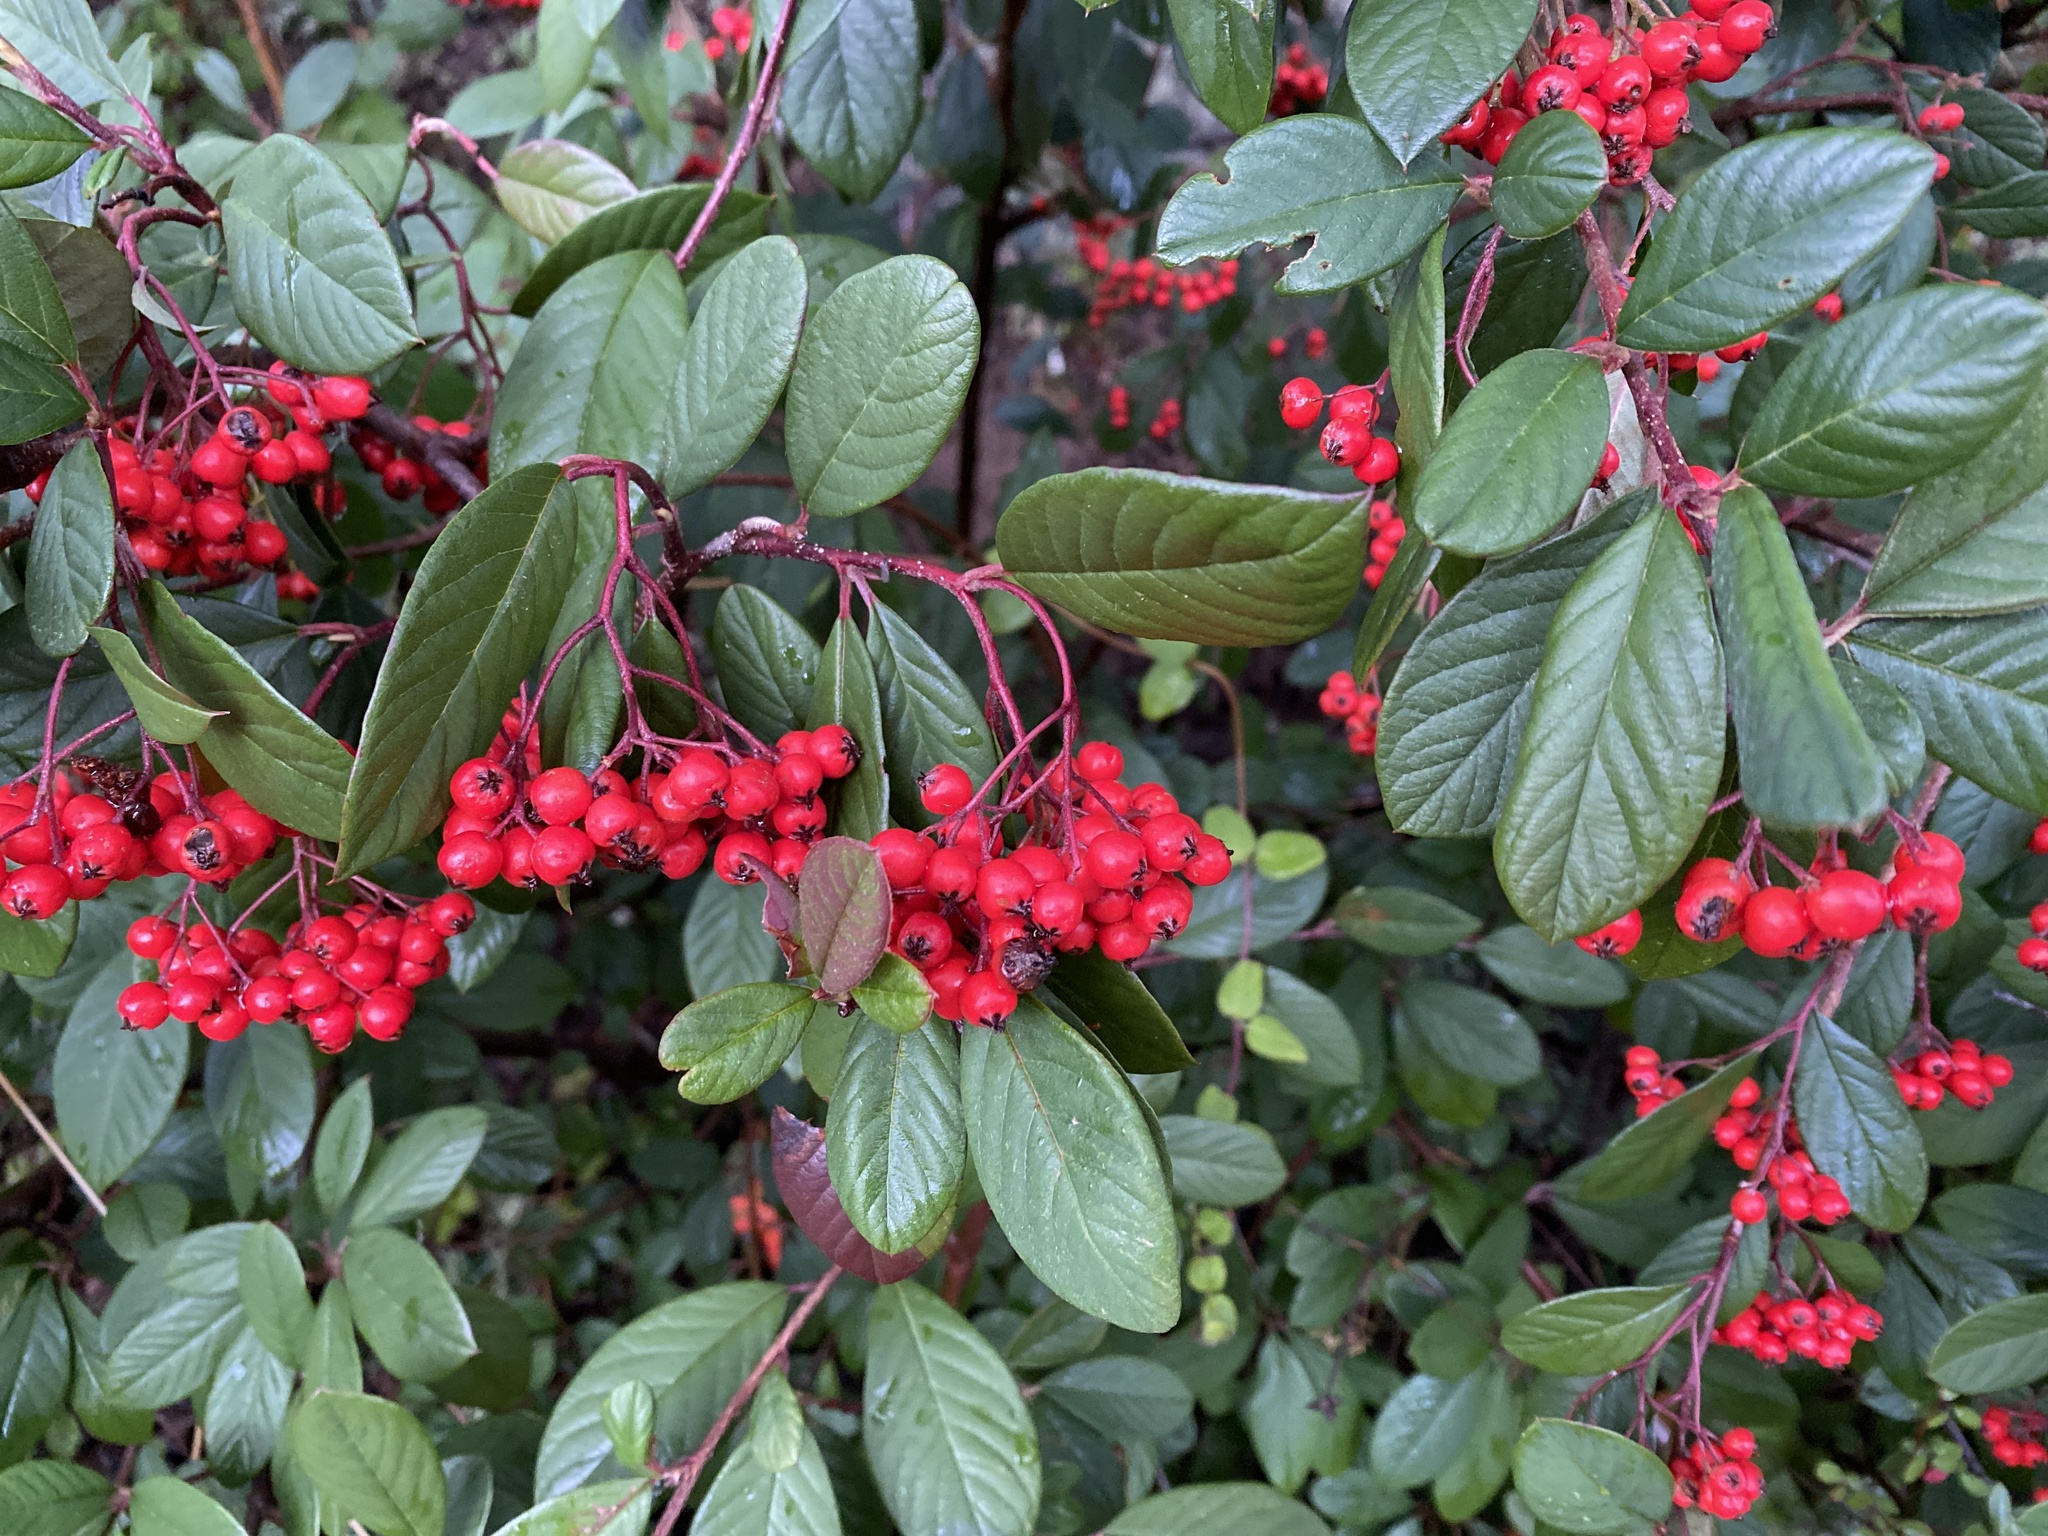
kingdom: Plantae
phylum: Tracheophyta
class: Magnoliopsida
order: Rosales
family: Rosaceae
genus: Cotoneaster
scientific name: Cotoneaster coriaceus
